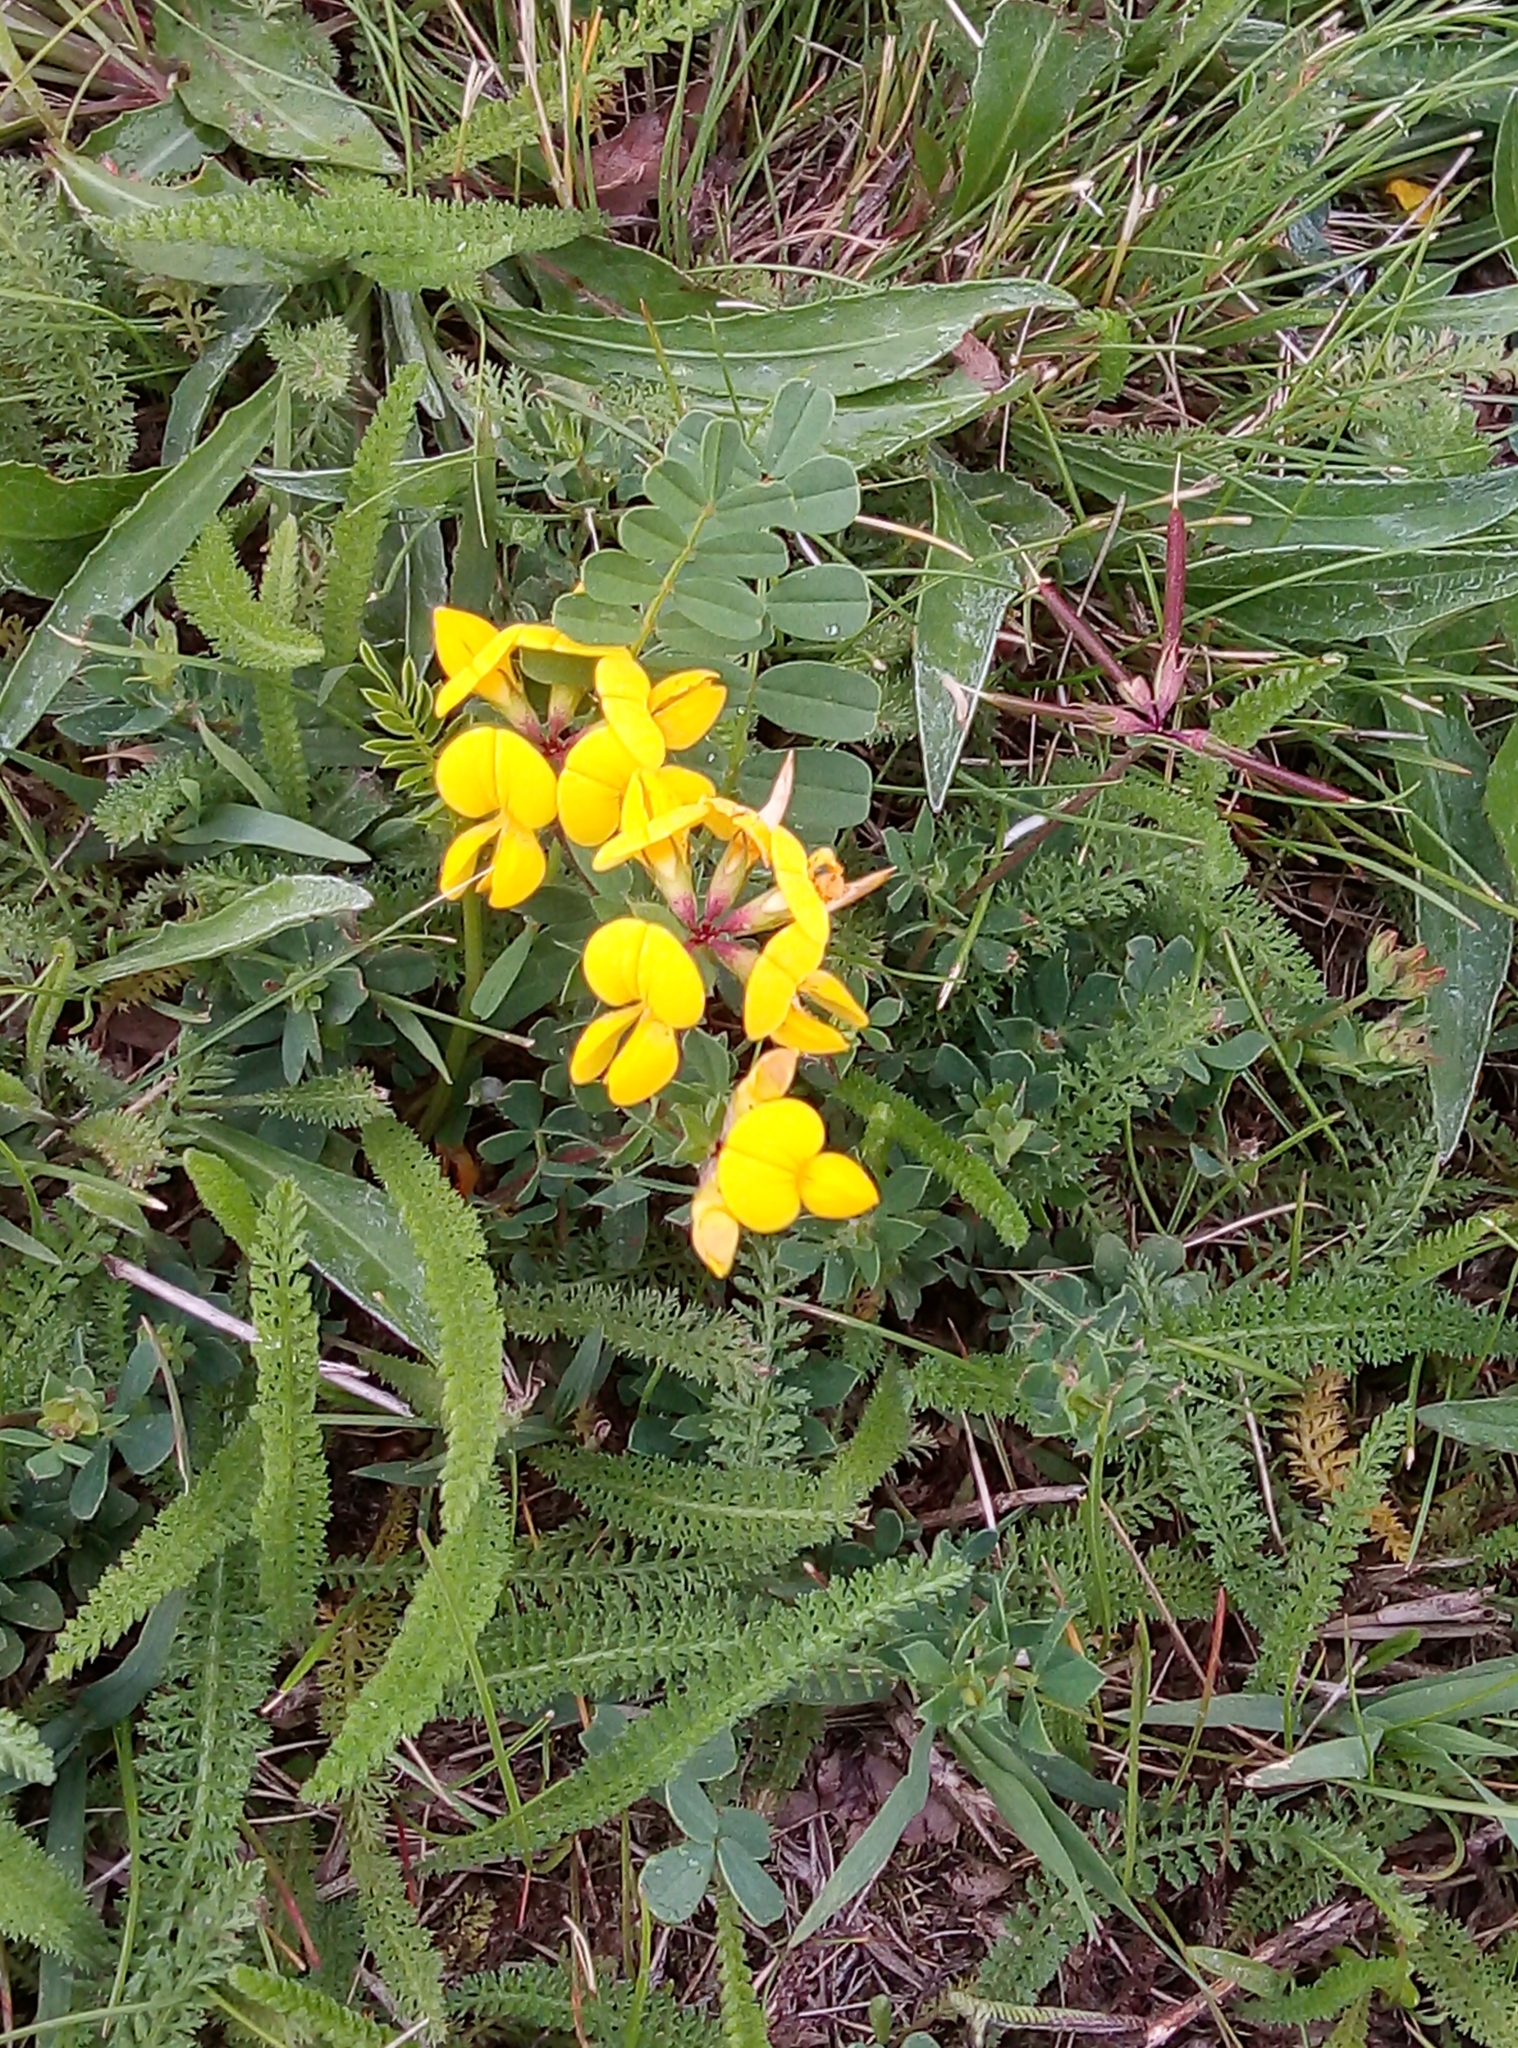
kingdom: Plantae
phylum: Tracheophyta
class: Magnoliopsida
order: Fabales
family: Fabaceae
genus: Lotus
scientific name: Lotus corniculatus
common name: Common bird's-foot-trefoil
